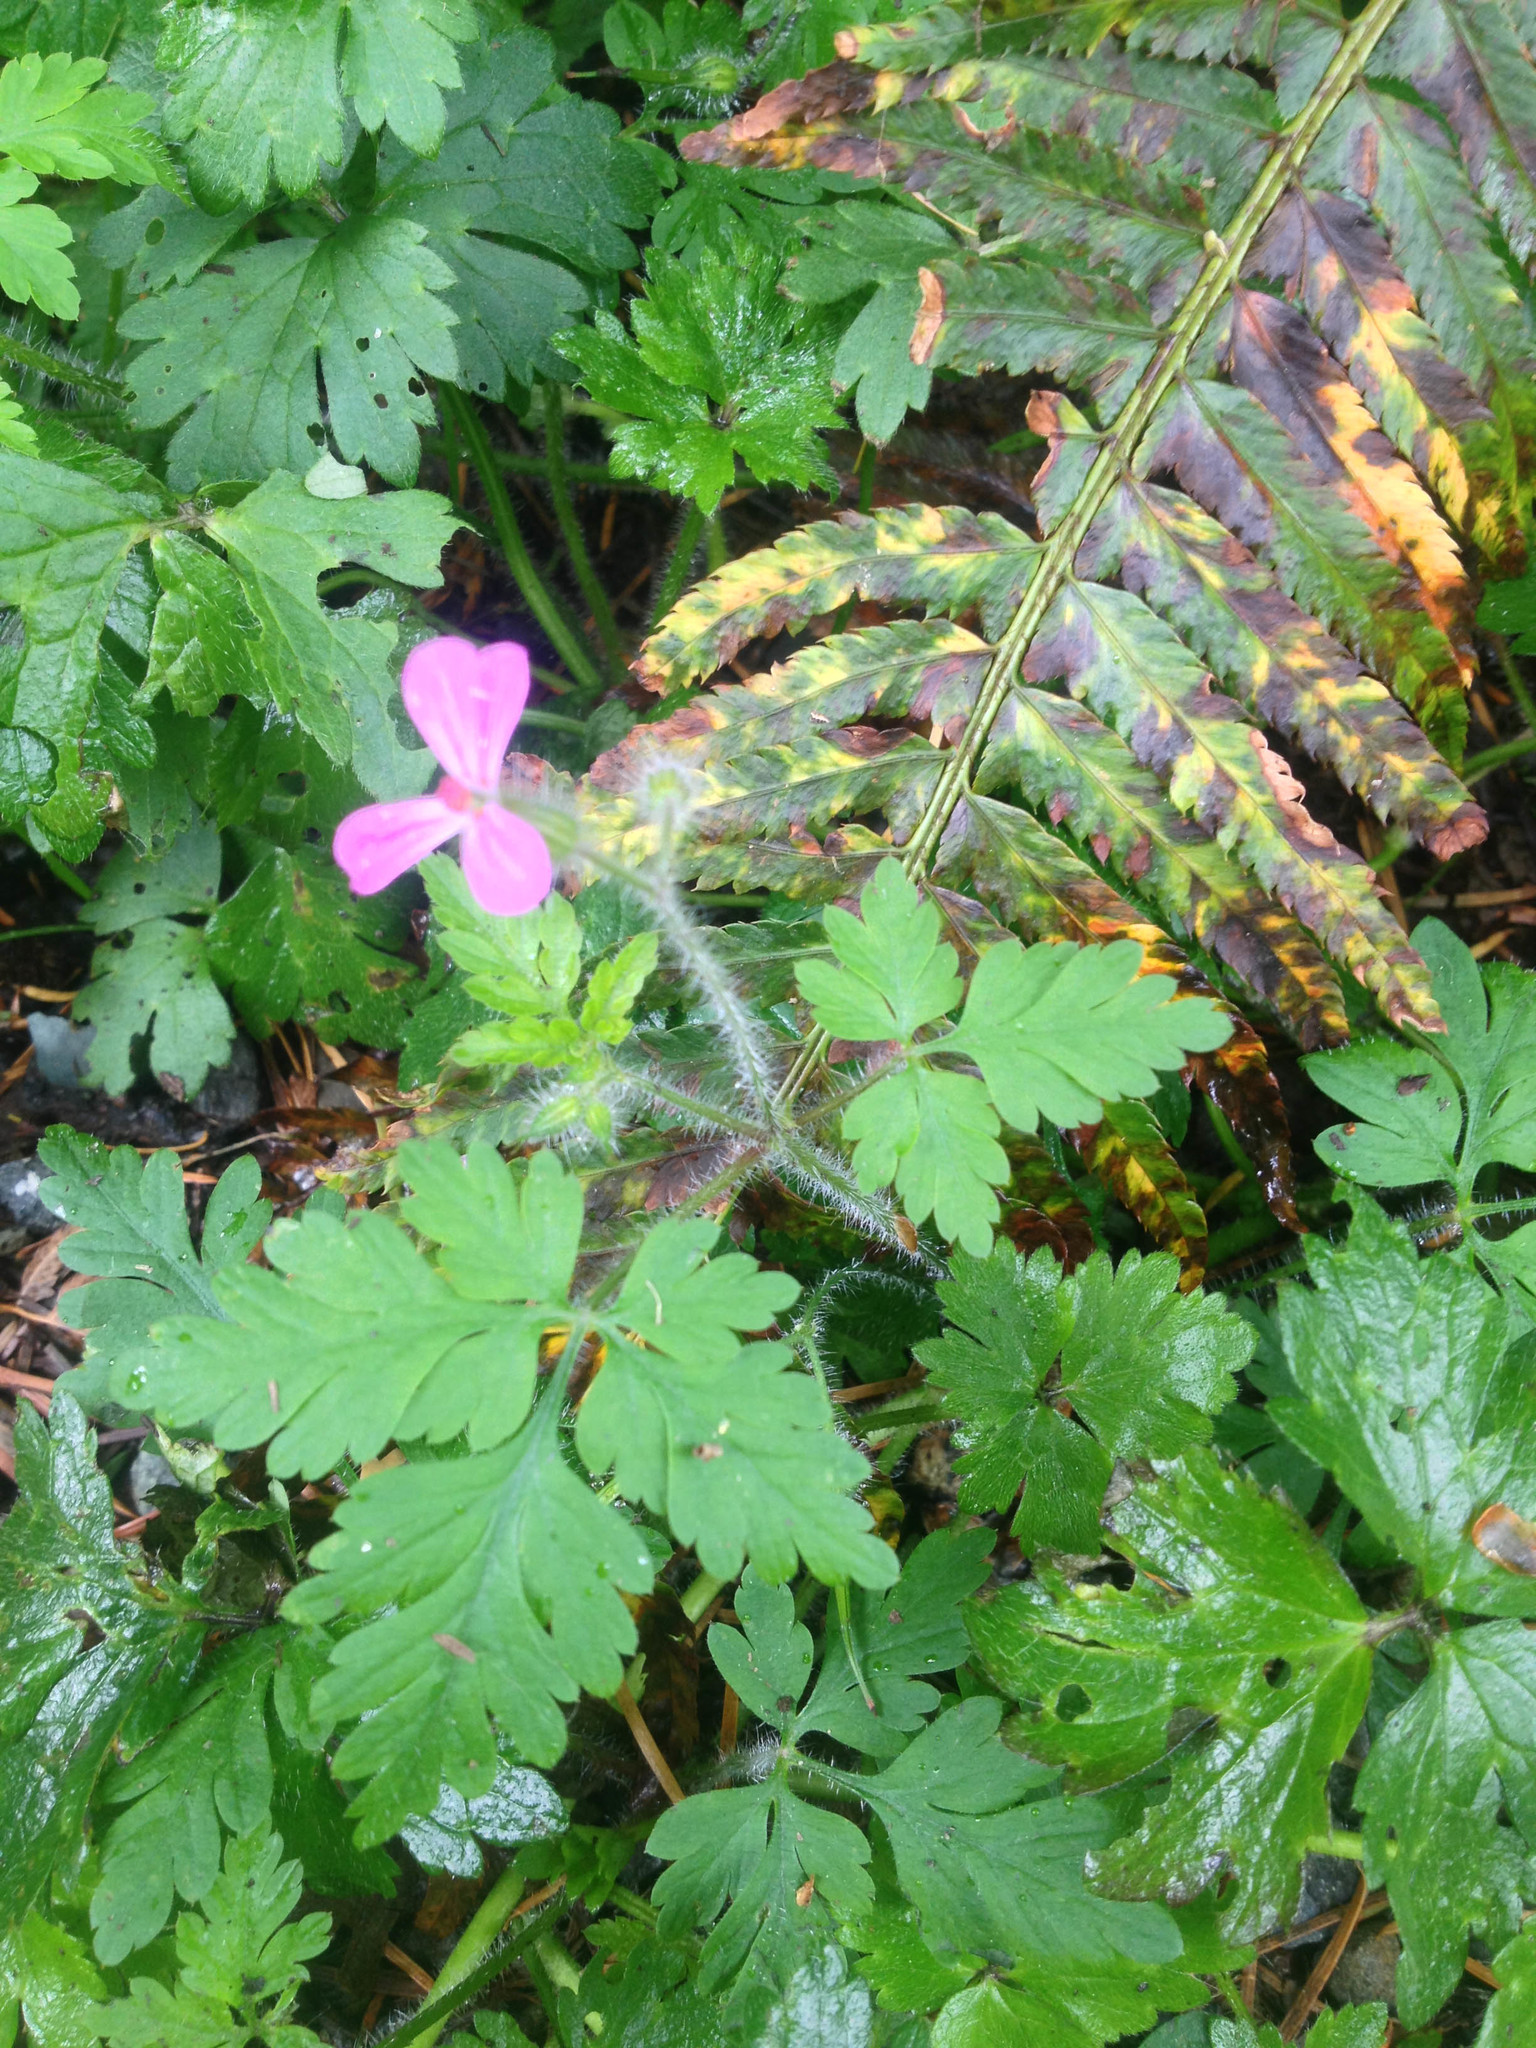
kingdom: Plantae
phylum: Tracheophyta
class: Magnoliopsida
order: Geraniales
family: Geraniaceae
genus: Geranium
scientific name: Geranium robertianum
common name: Herb-robert
